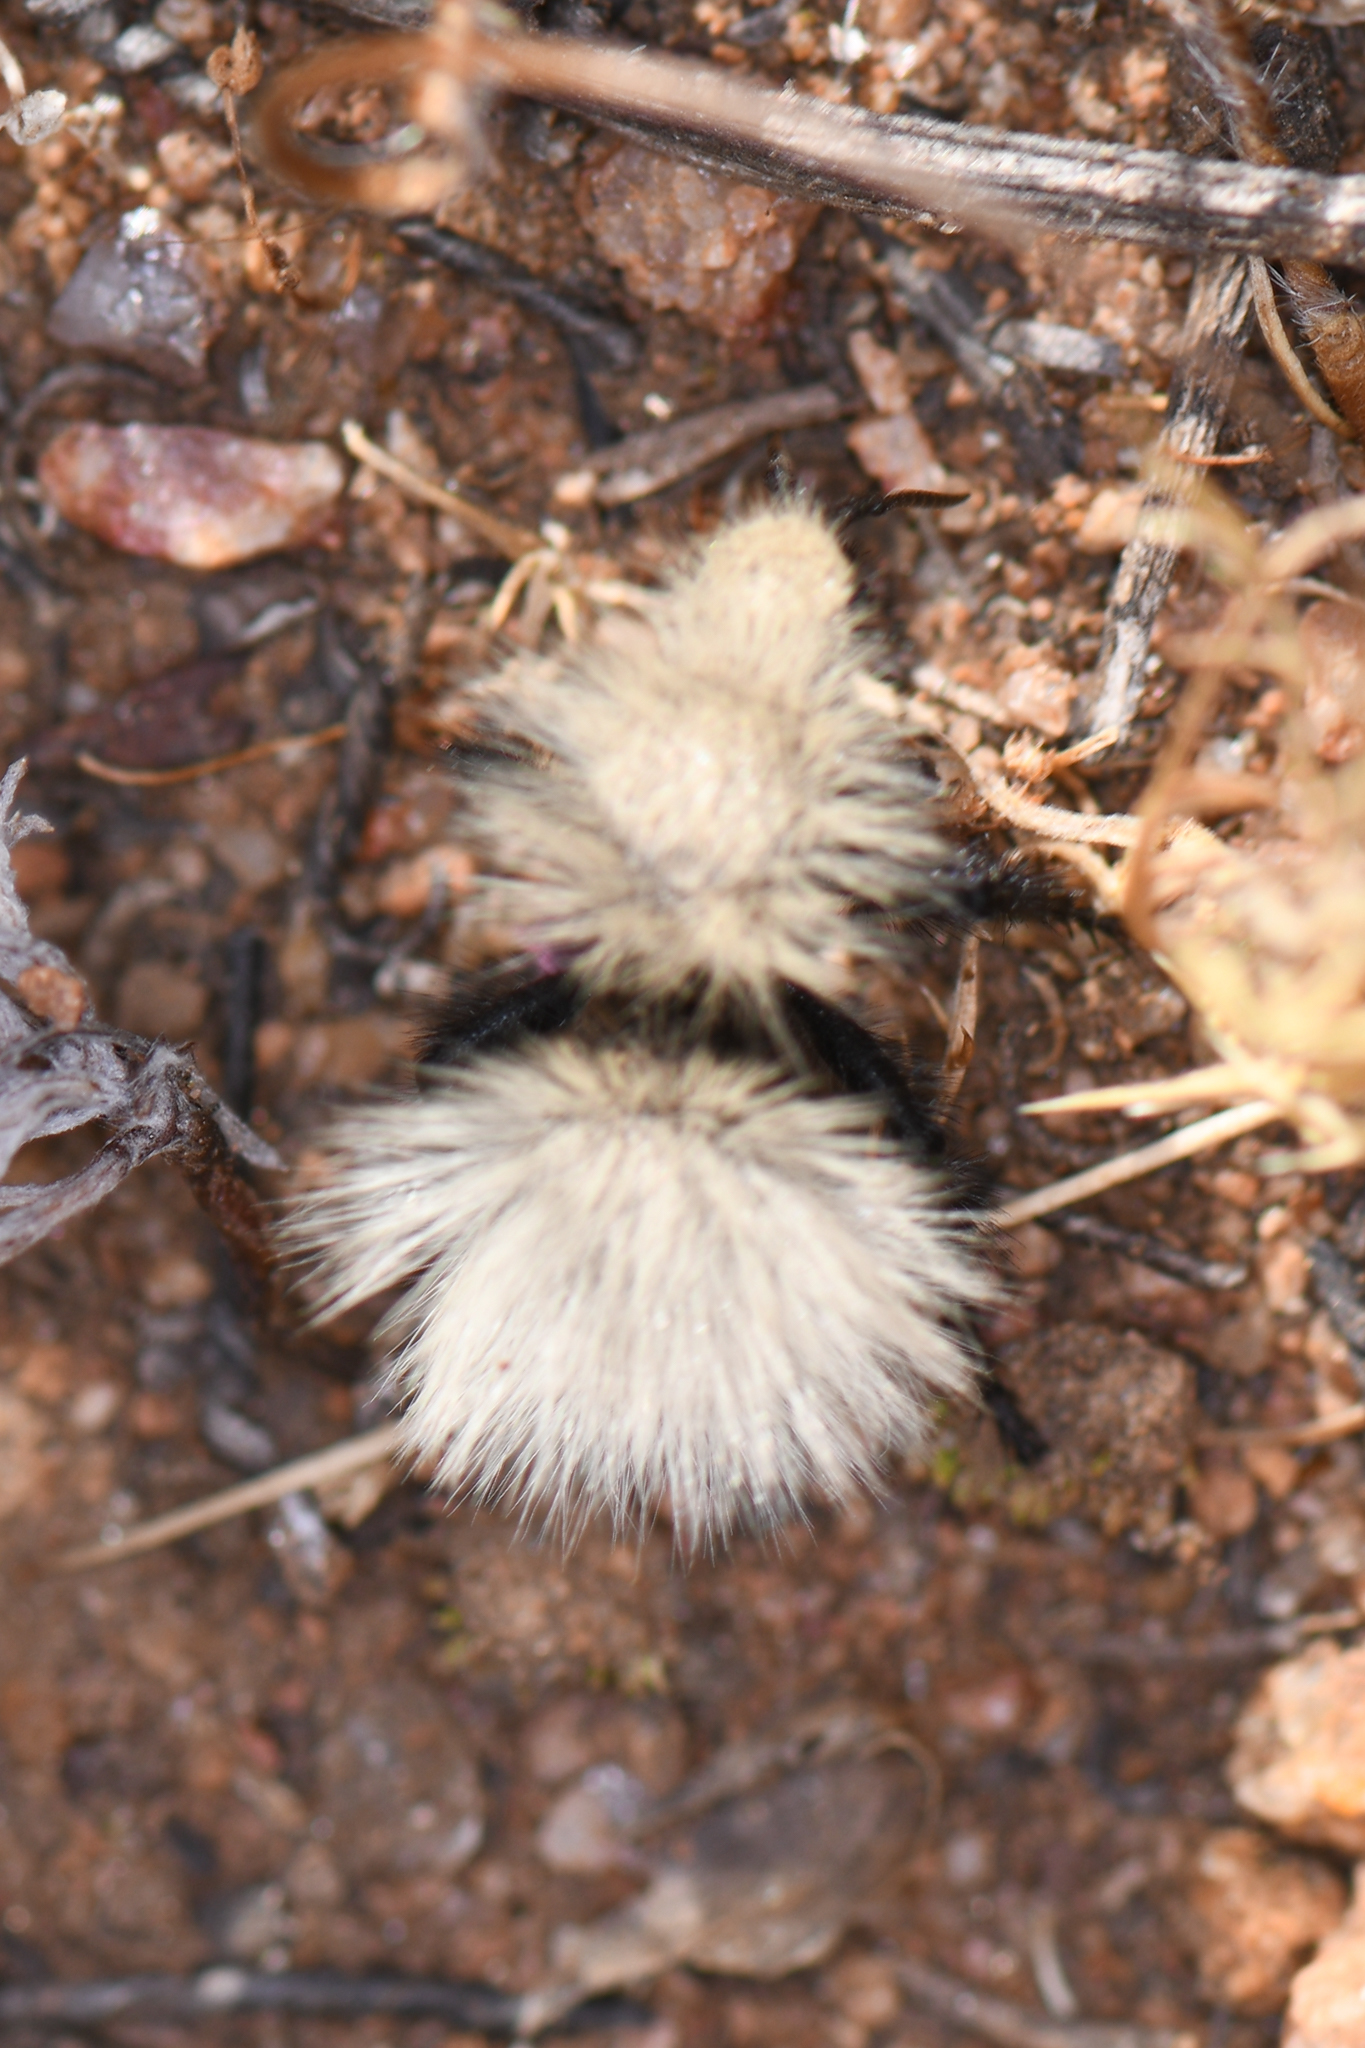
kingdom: Animalia
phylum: Arthropoda
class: Insecta
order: Hymenoptera
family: Mutillidae
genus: Dasymutilla
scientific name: Dasymutilla
